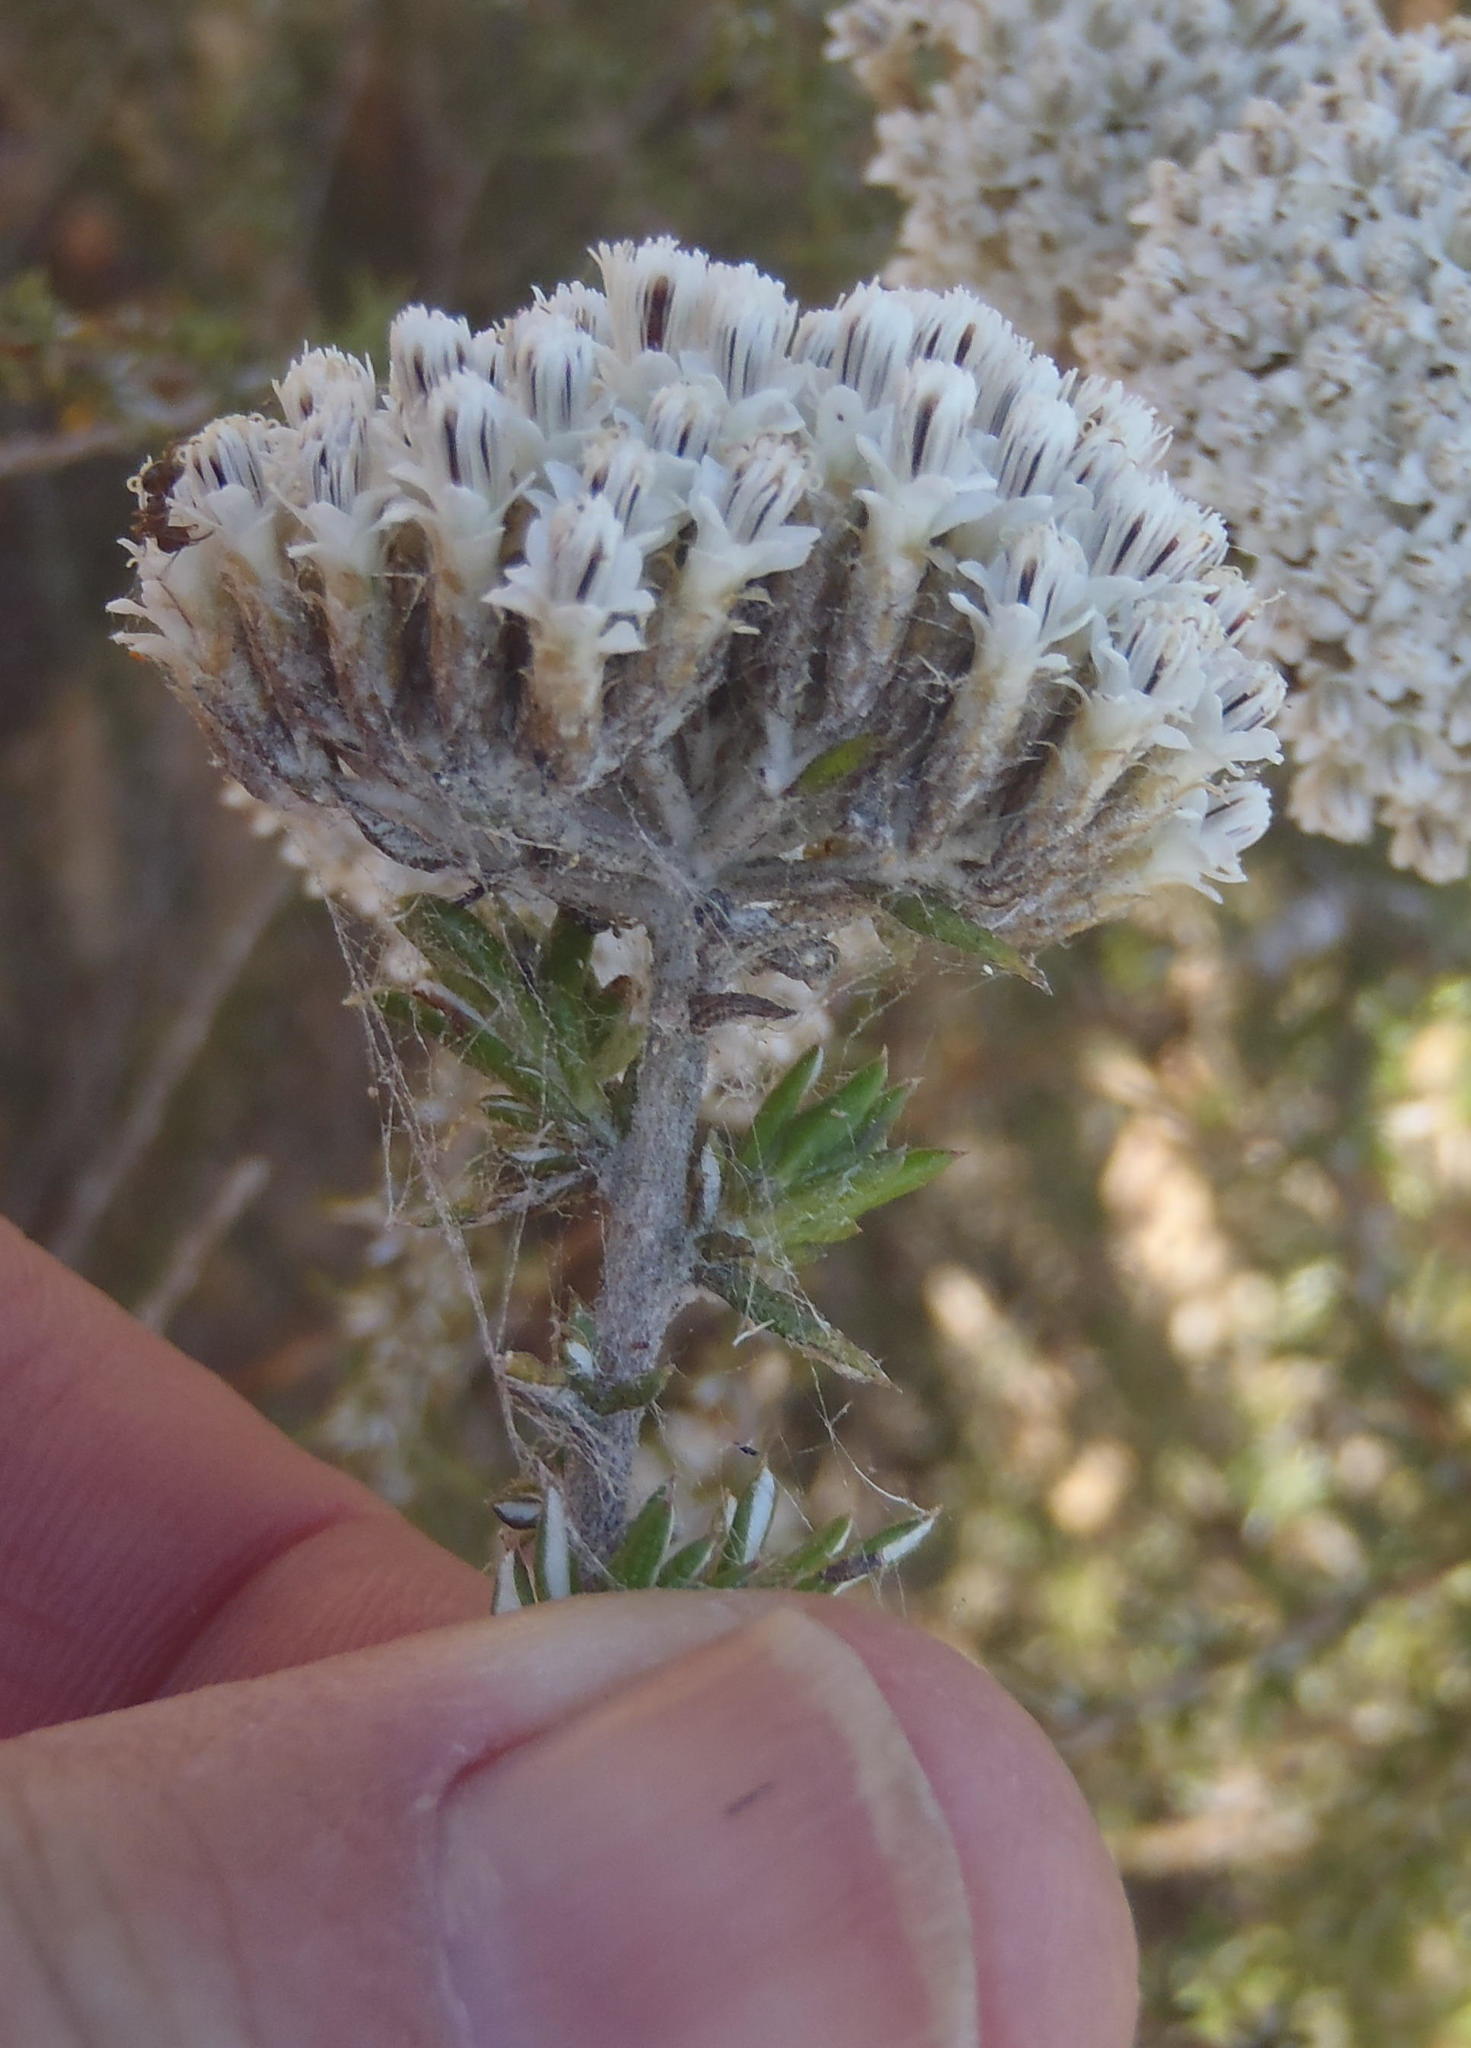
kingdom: Plantae
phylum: Tracheophyta
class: Magnoliopsida
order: Asterales
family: Asteraceae
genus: Metalasia
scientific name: Metalasia densa
